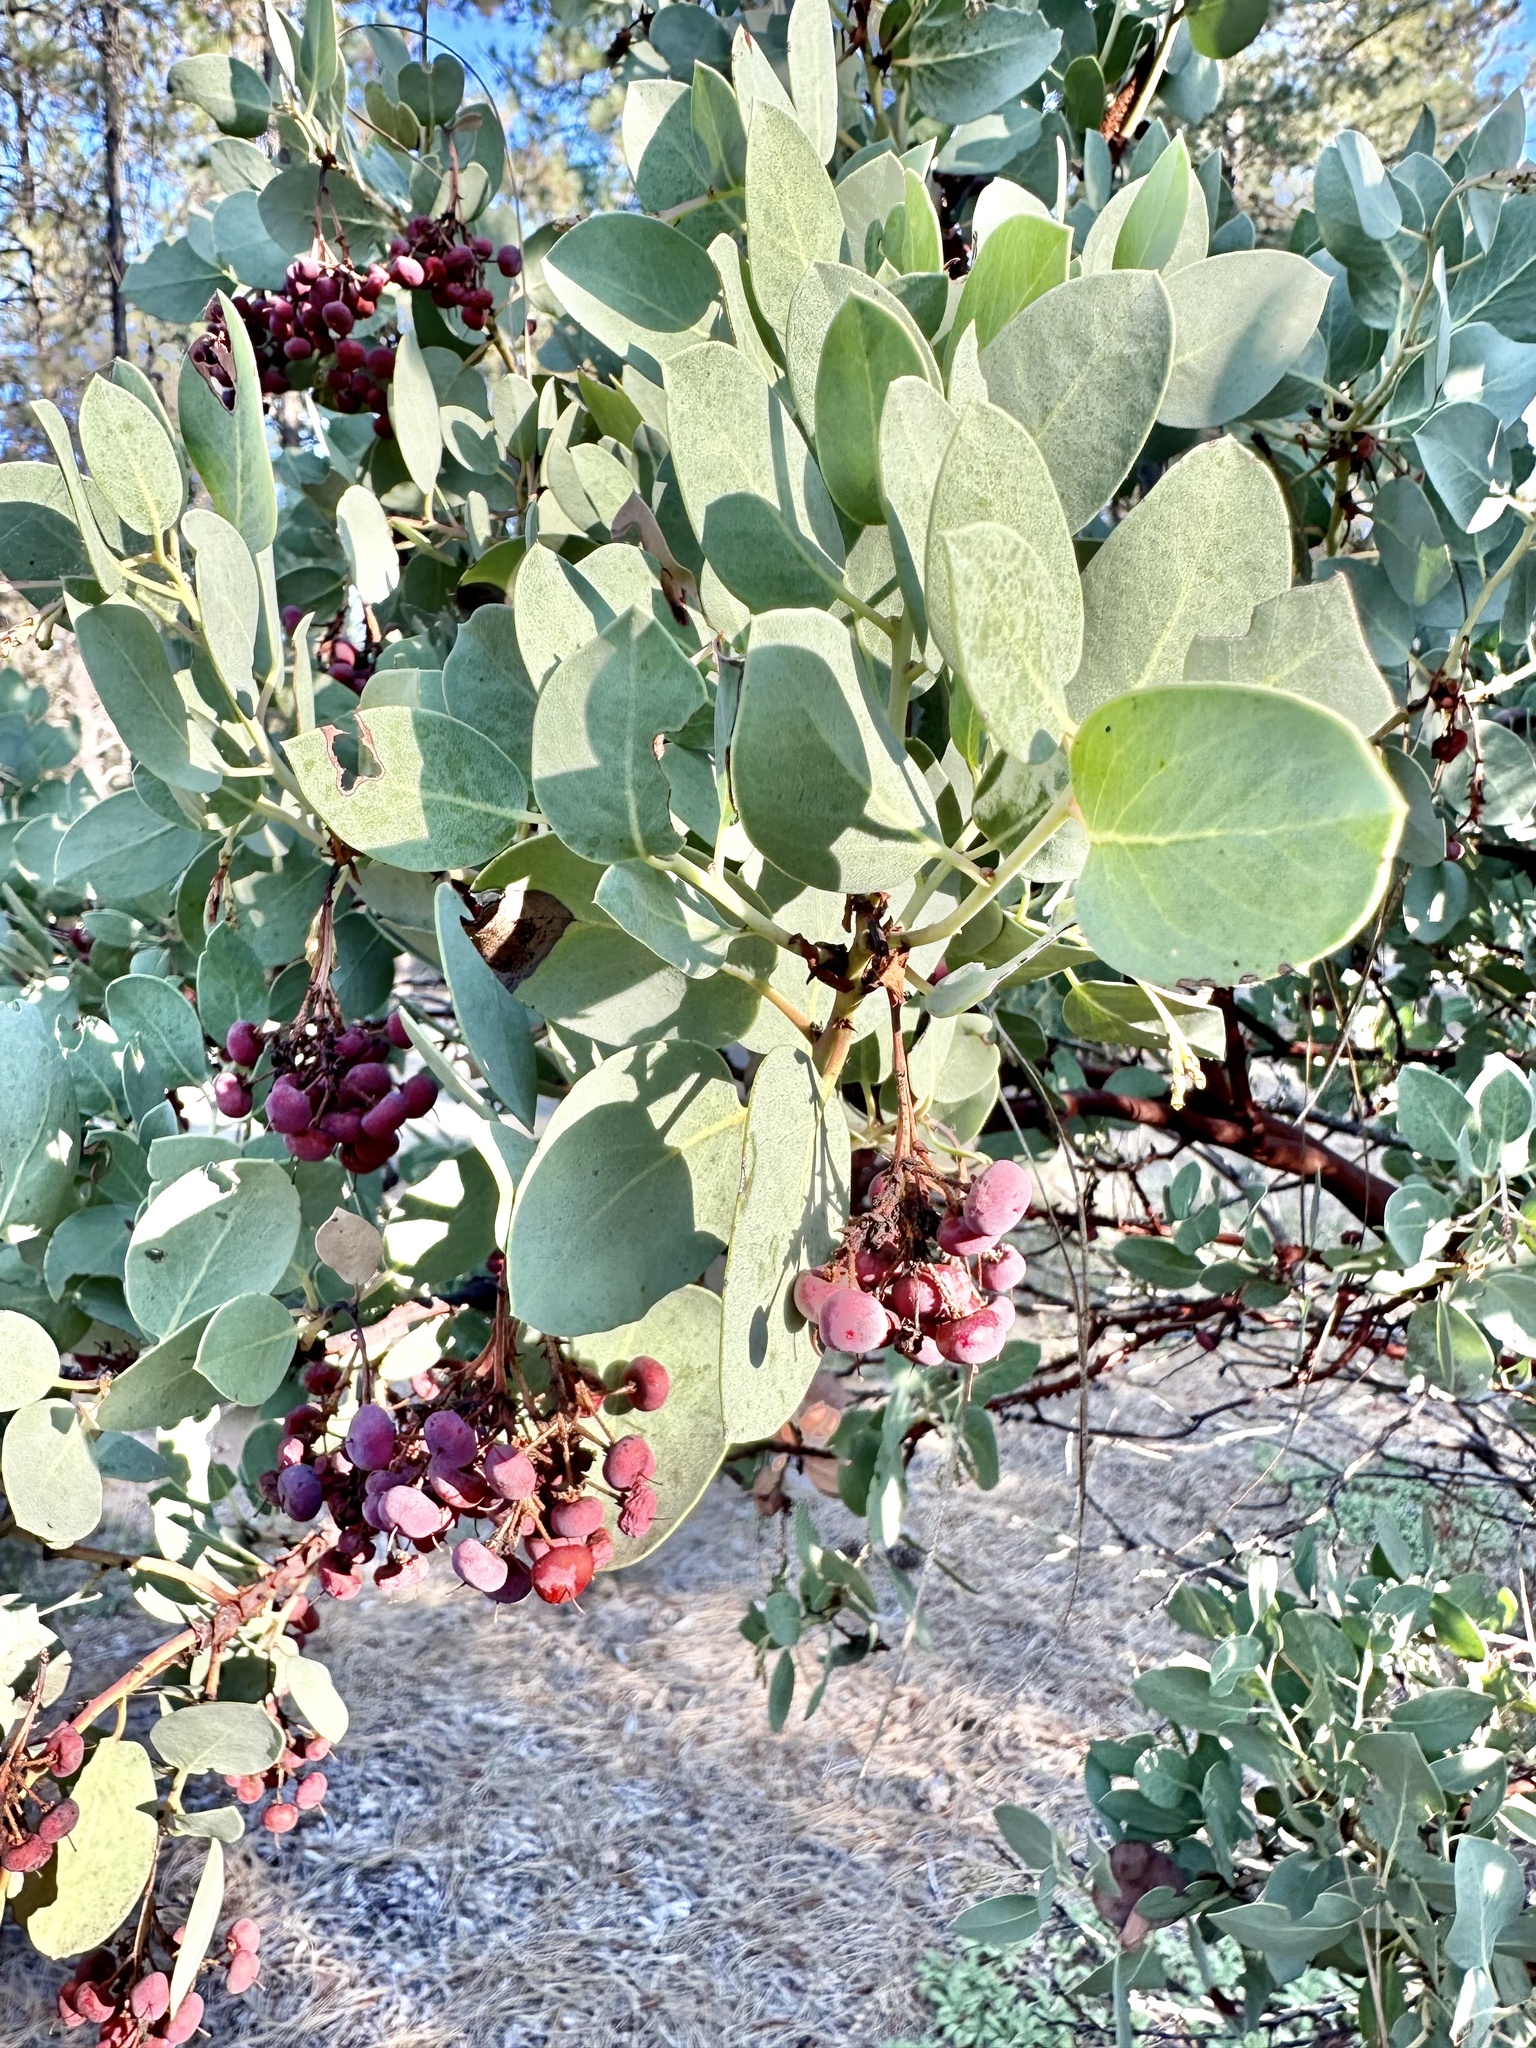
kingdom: Plantae
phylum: Tracheophyta
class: Magnoliopsida
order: Ericales
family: Ericaceae
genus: Arctostaphylos
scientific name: Arctostaphylos viscida
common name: White-leaf manzanita
